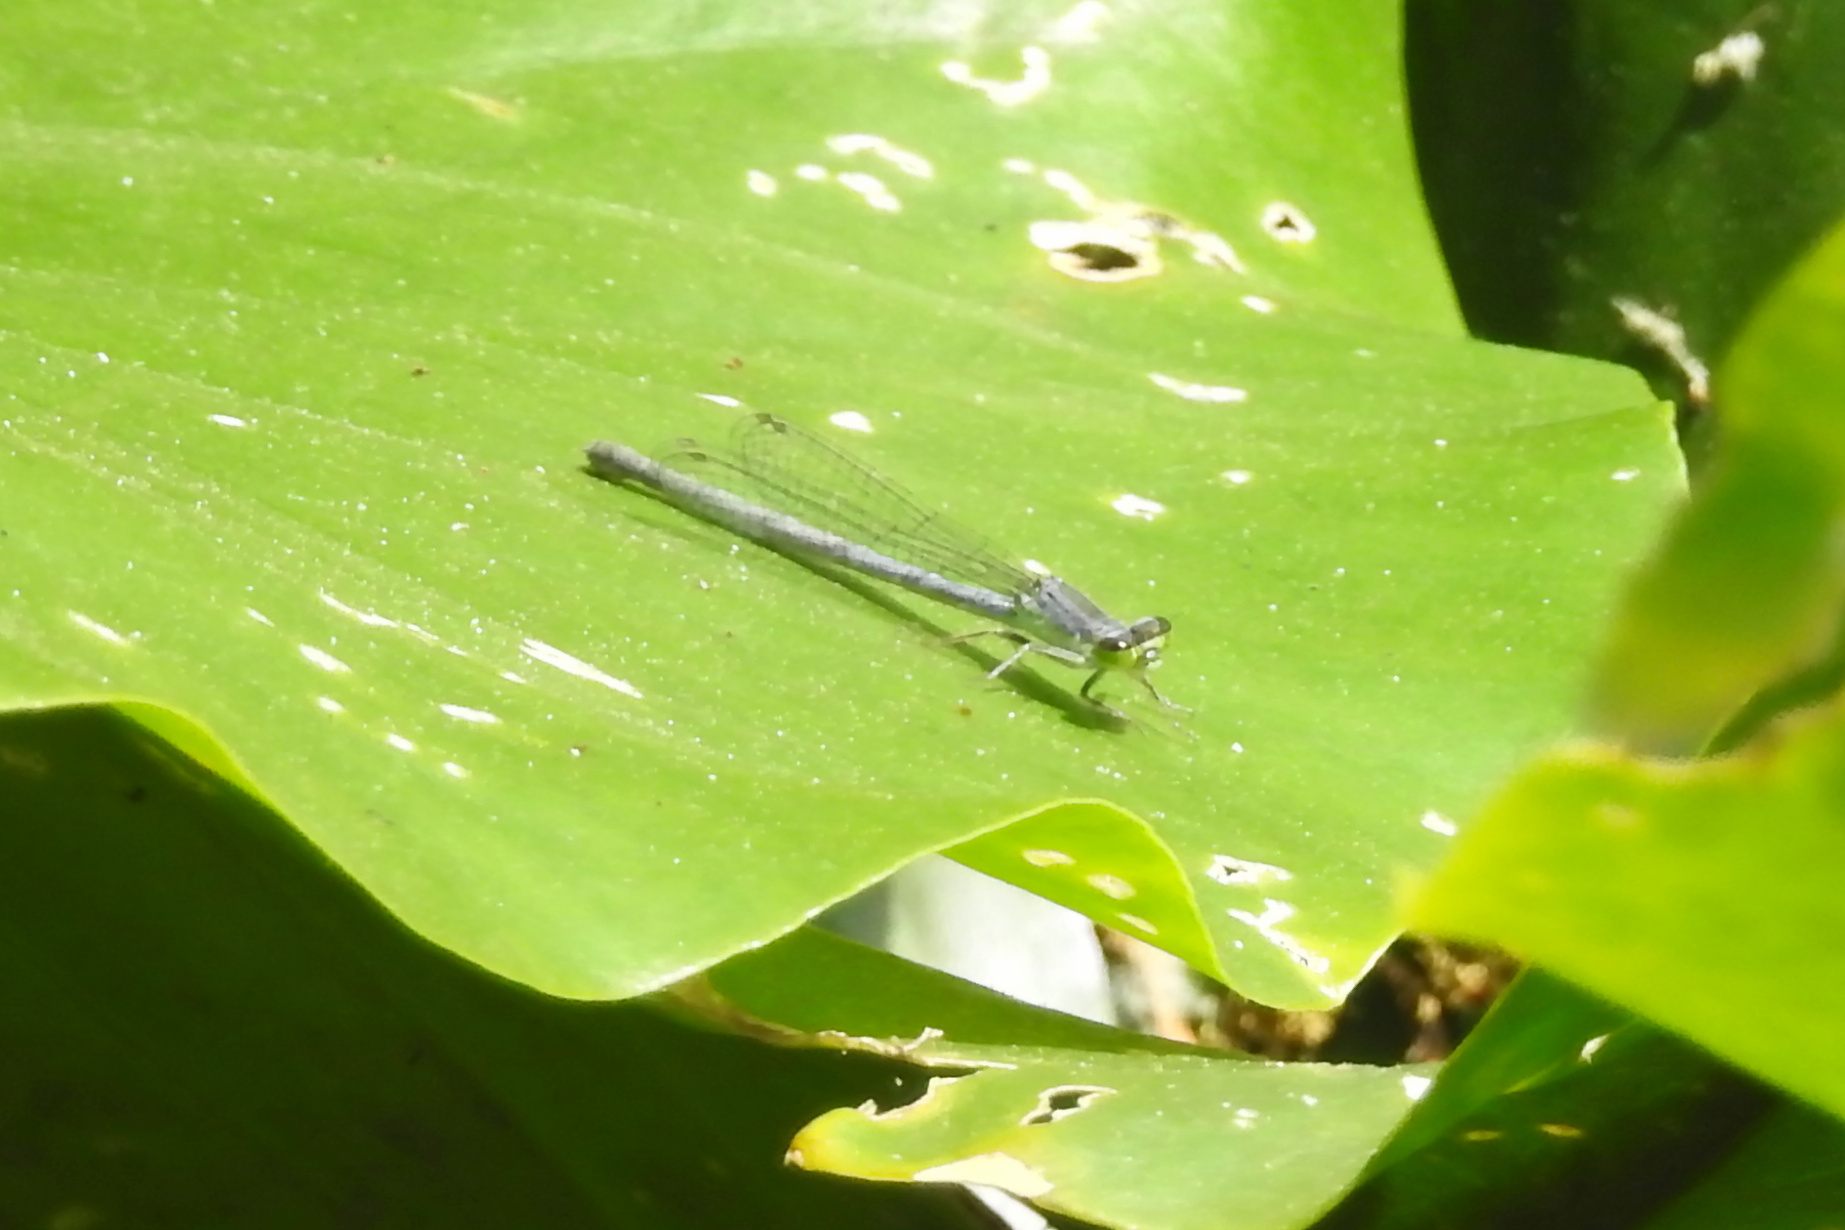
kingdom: Animalia
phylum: Arthropoda
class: Insecta
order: Odonata
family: Coenagrionidae
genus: Ischnura
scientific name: Ischnura verticalis
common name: Eastern forktail
